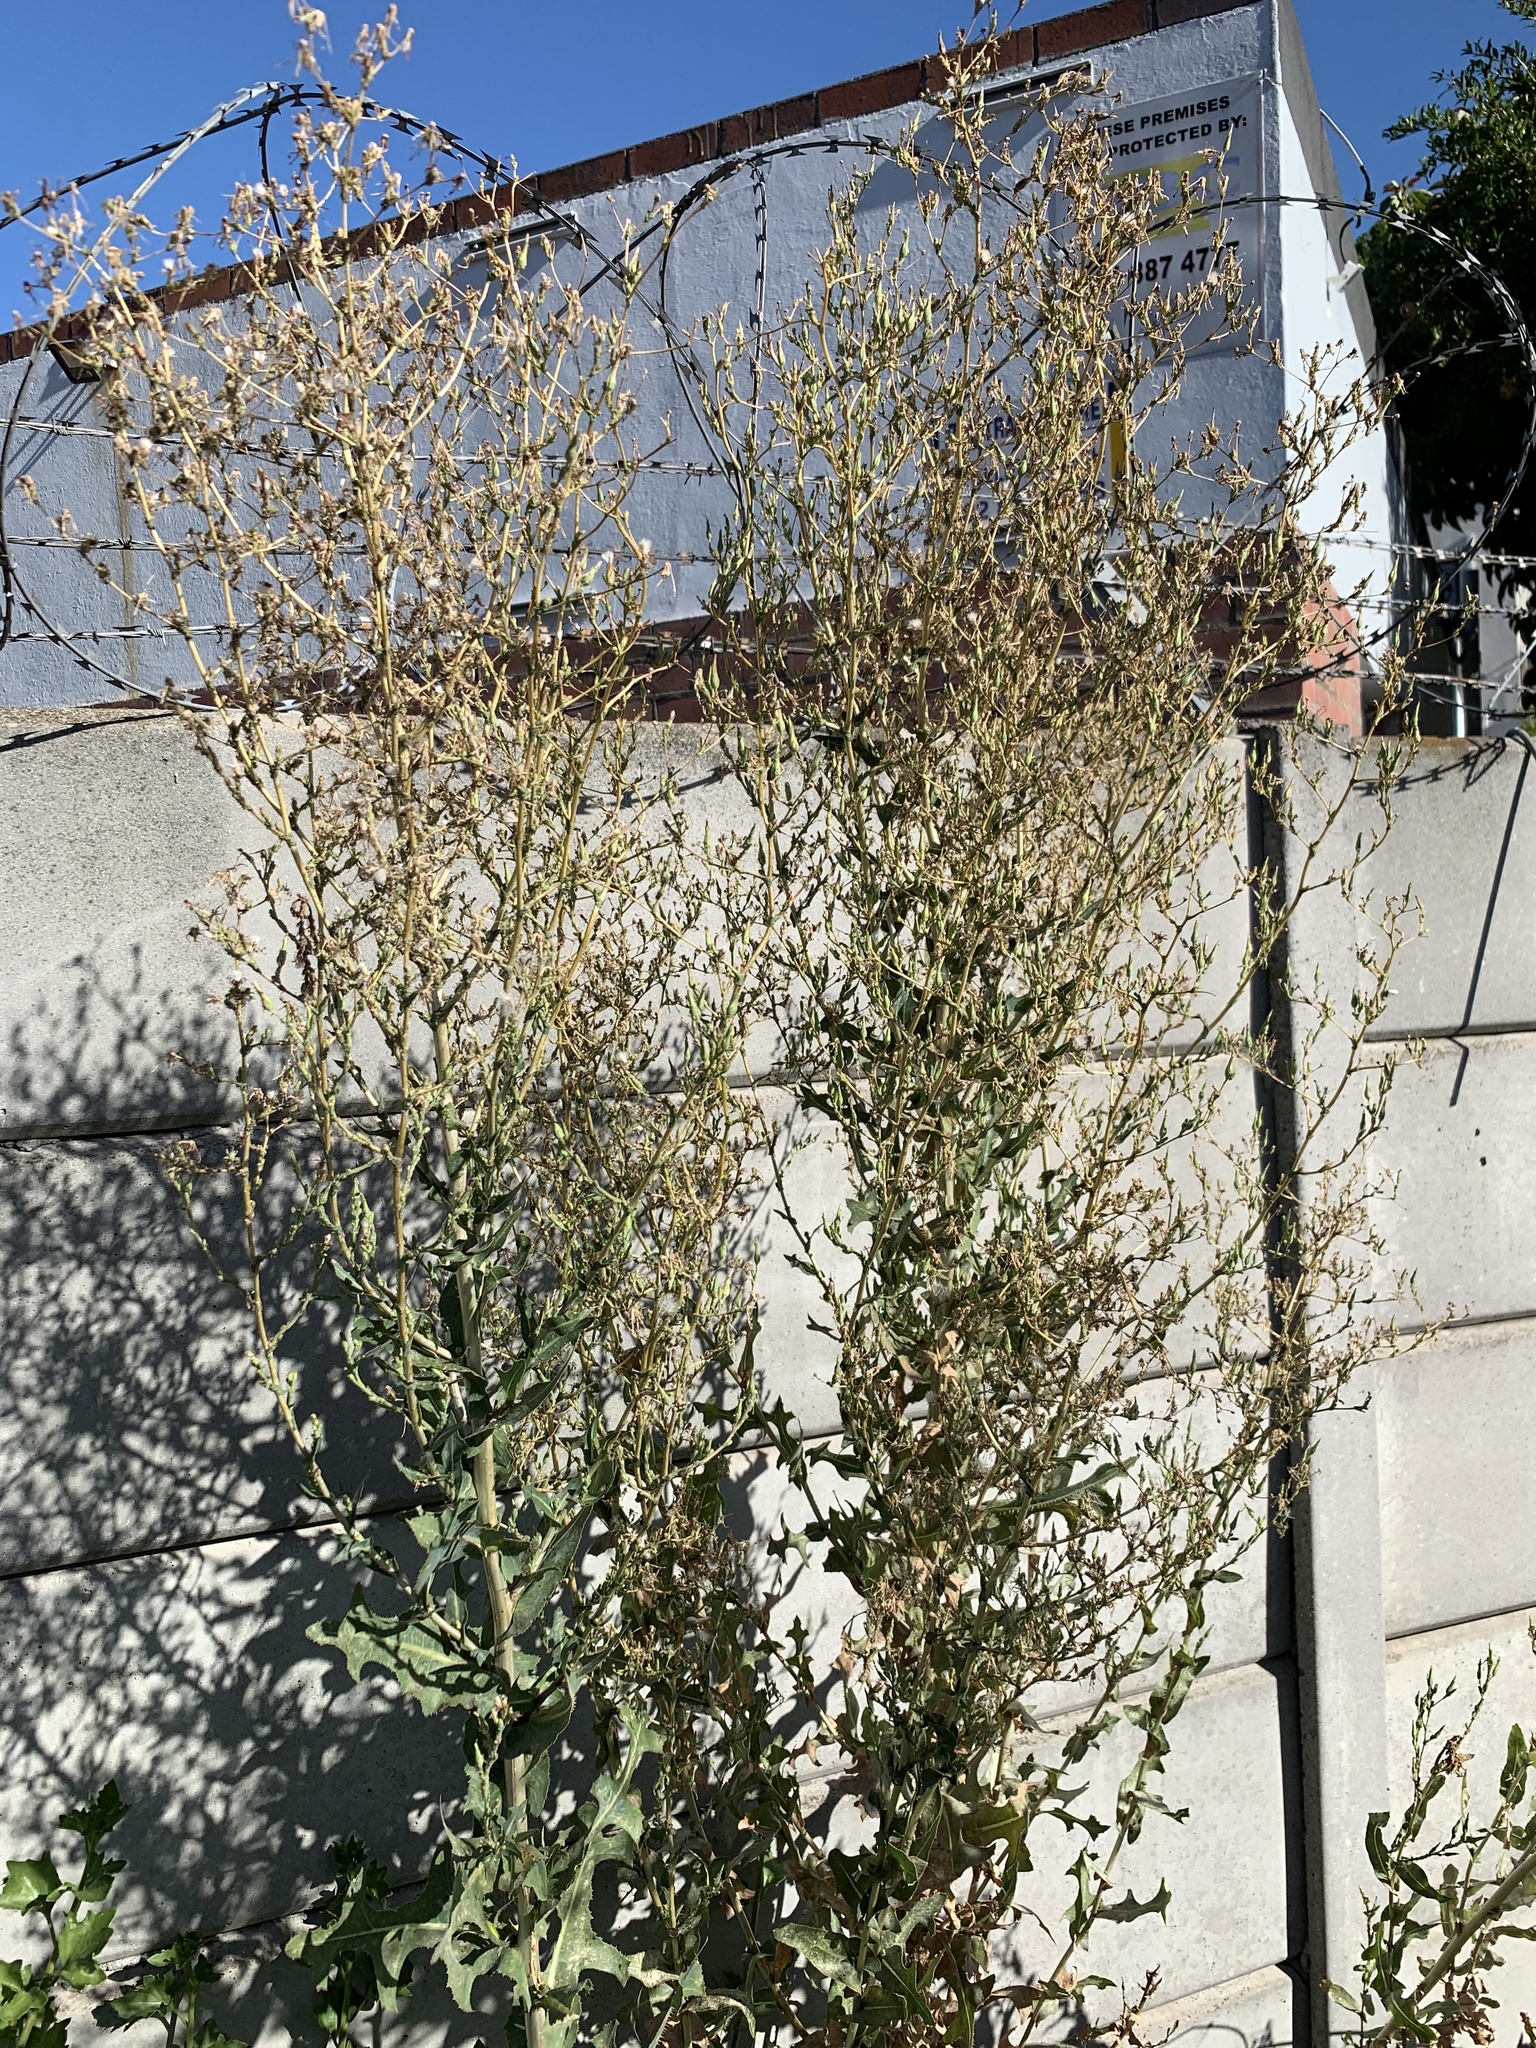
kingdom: Plantae
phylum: Tracheophyta
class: Magnoliopsida
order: Asterales
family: Asteraceae
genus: Lactuca
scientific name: Lactuca serriola
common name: Prickly lettuce
